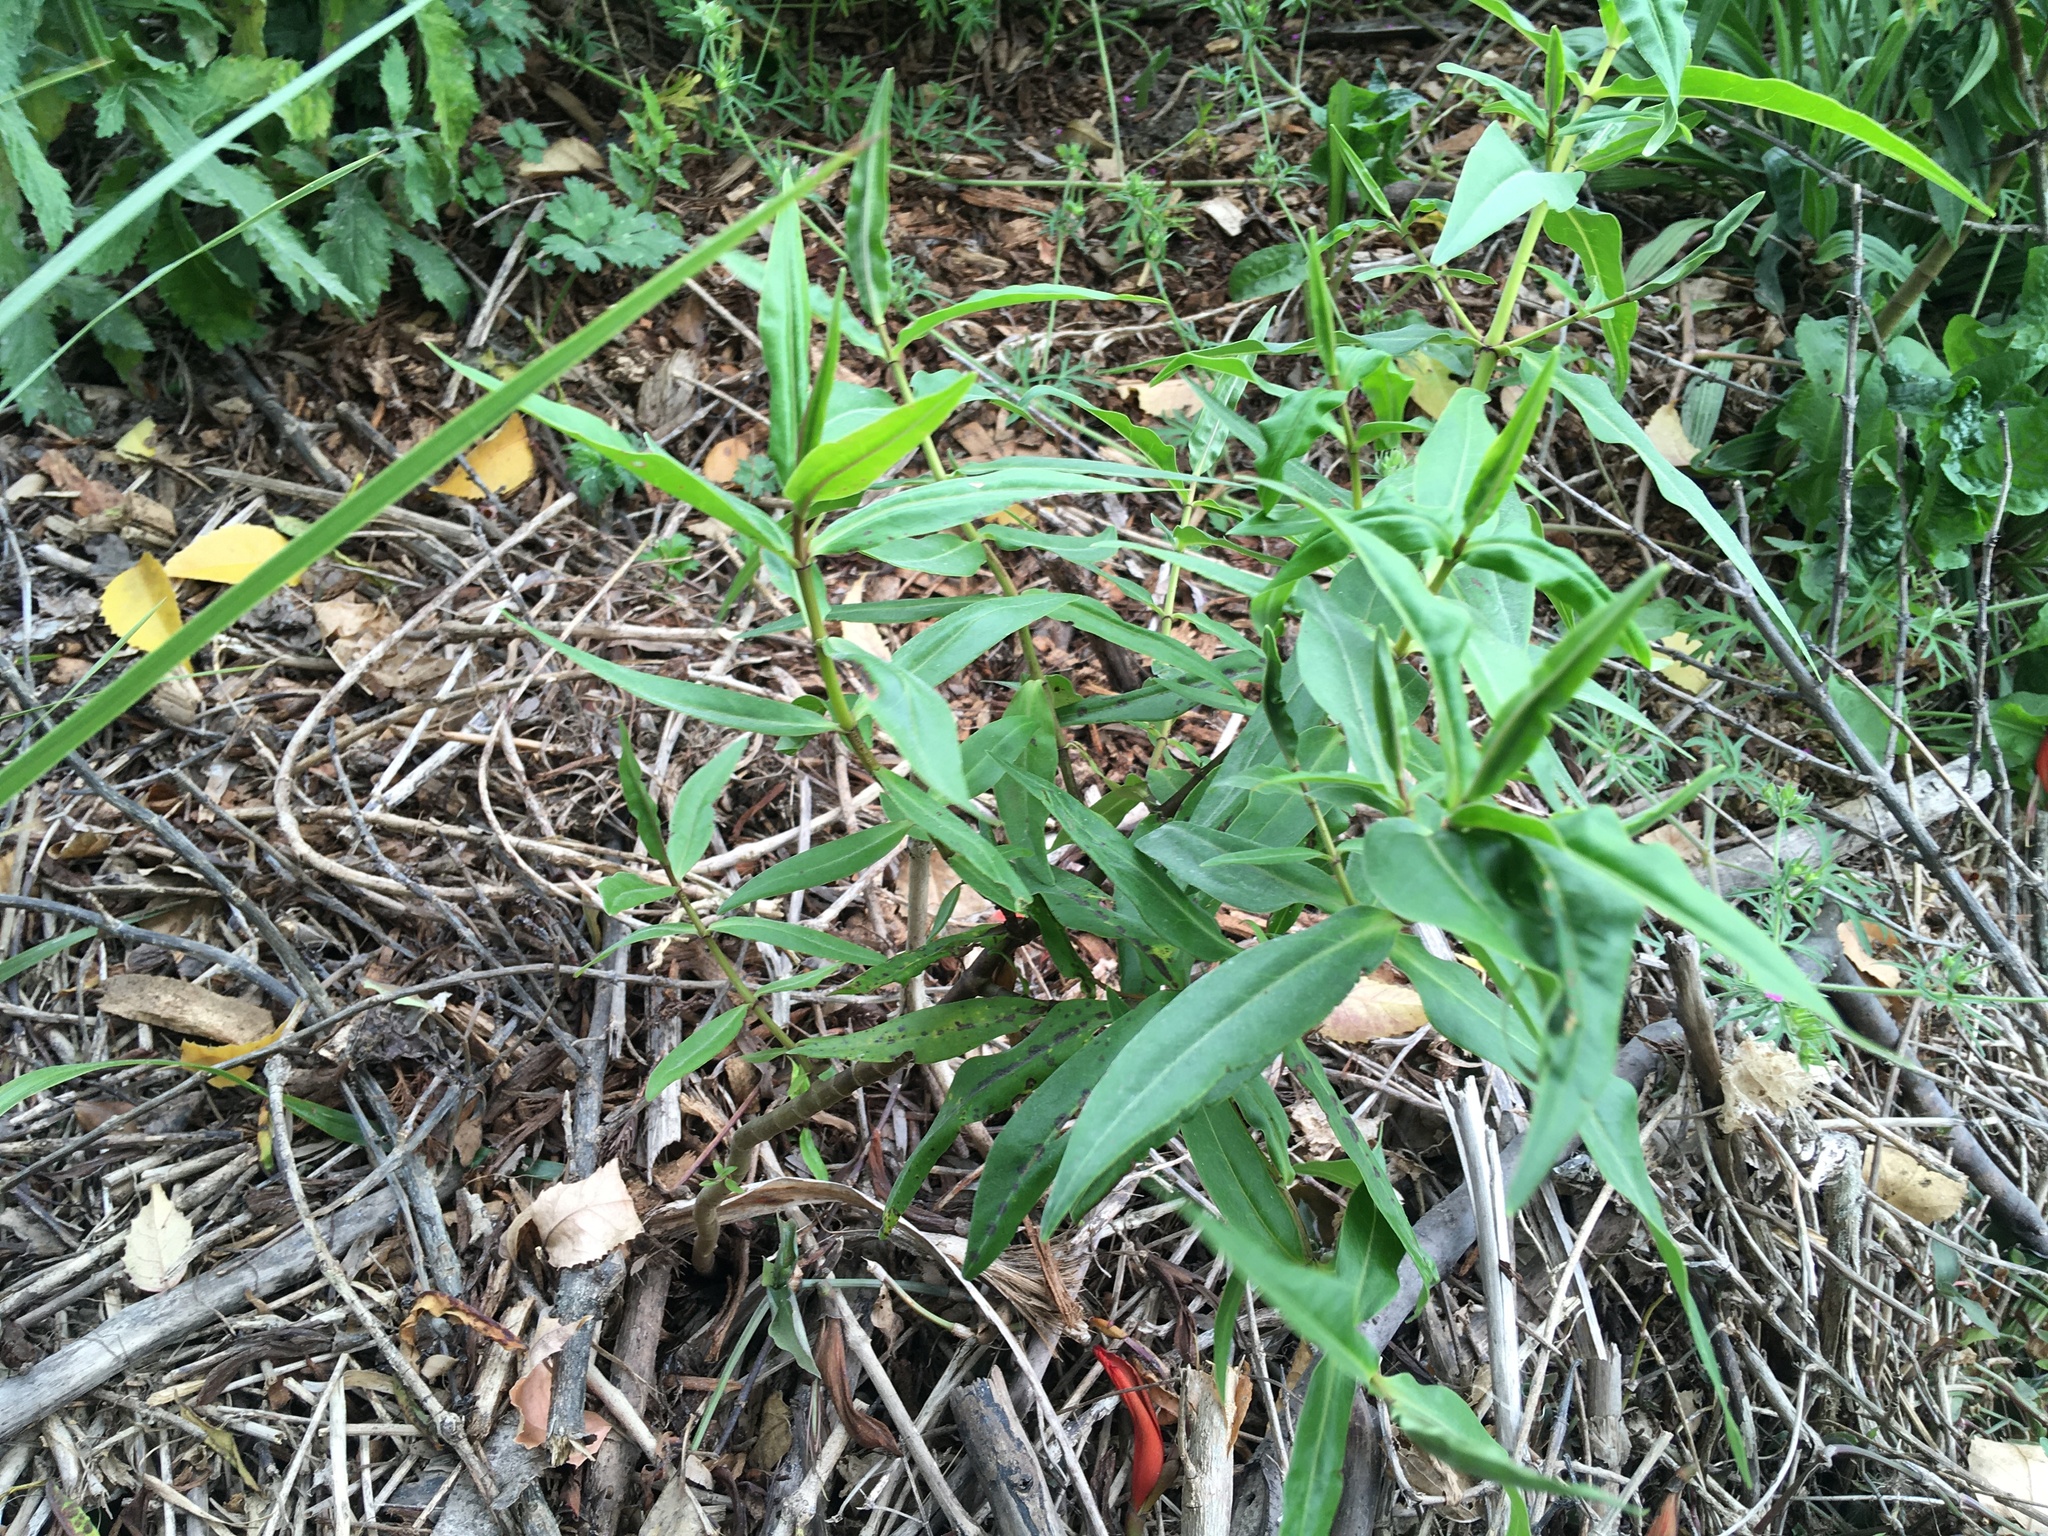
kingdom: Plantae
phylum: Tracheophyta
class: Magnoliopsida
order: Lamiales
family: Plantaginaceae
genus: Veronica
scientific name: Veronica stricta
